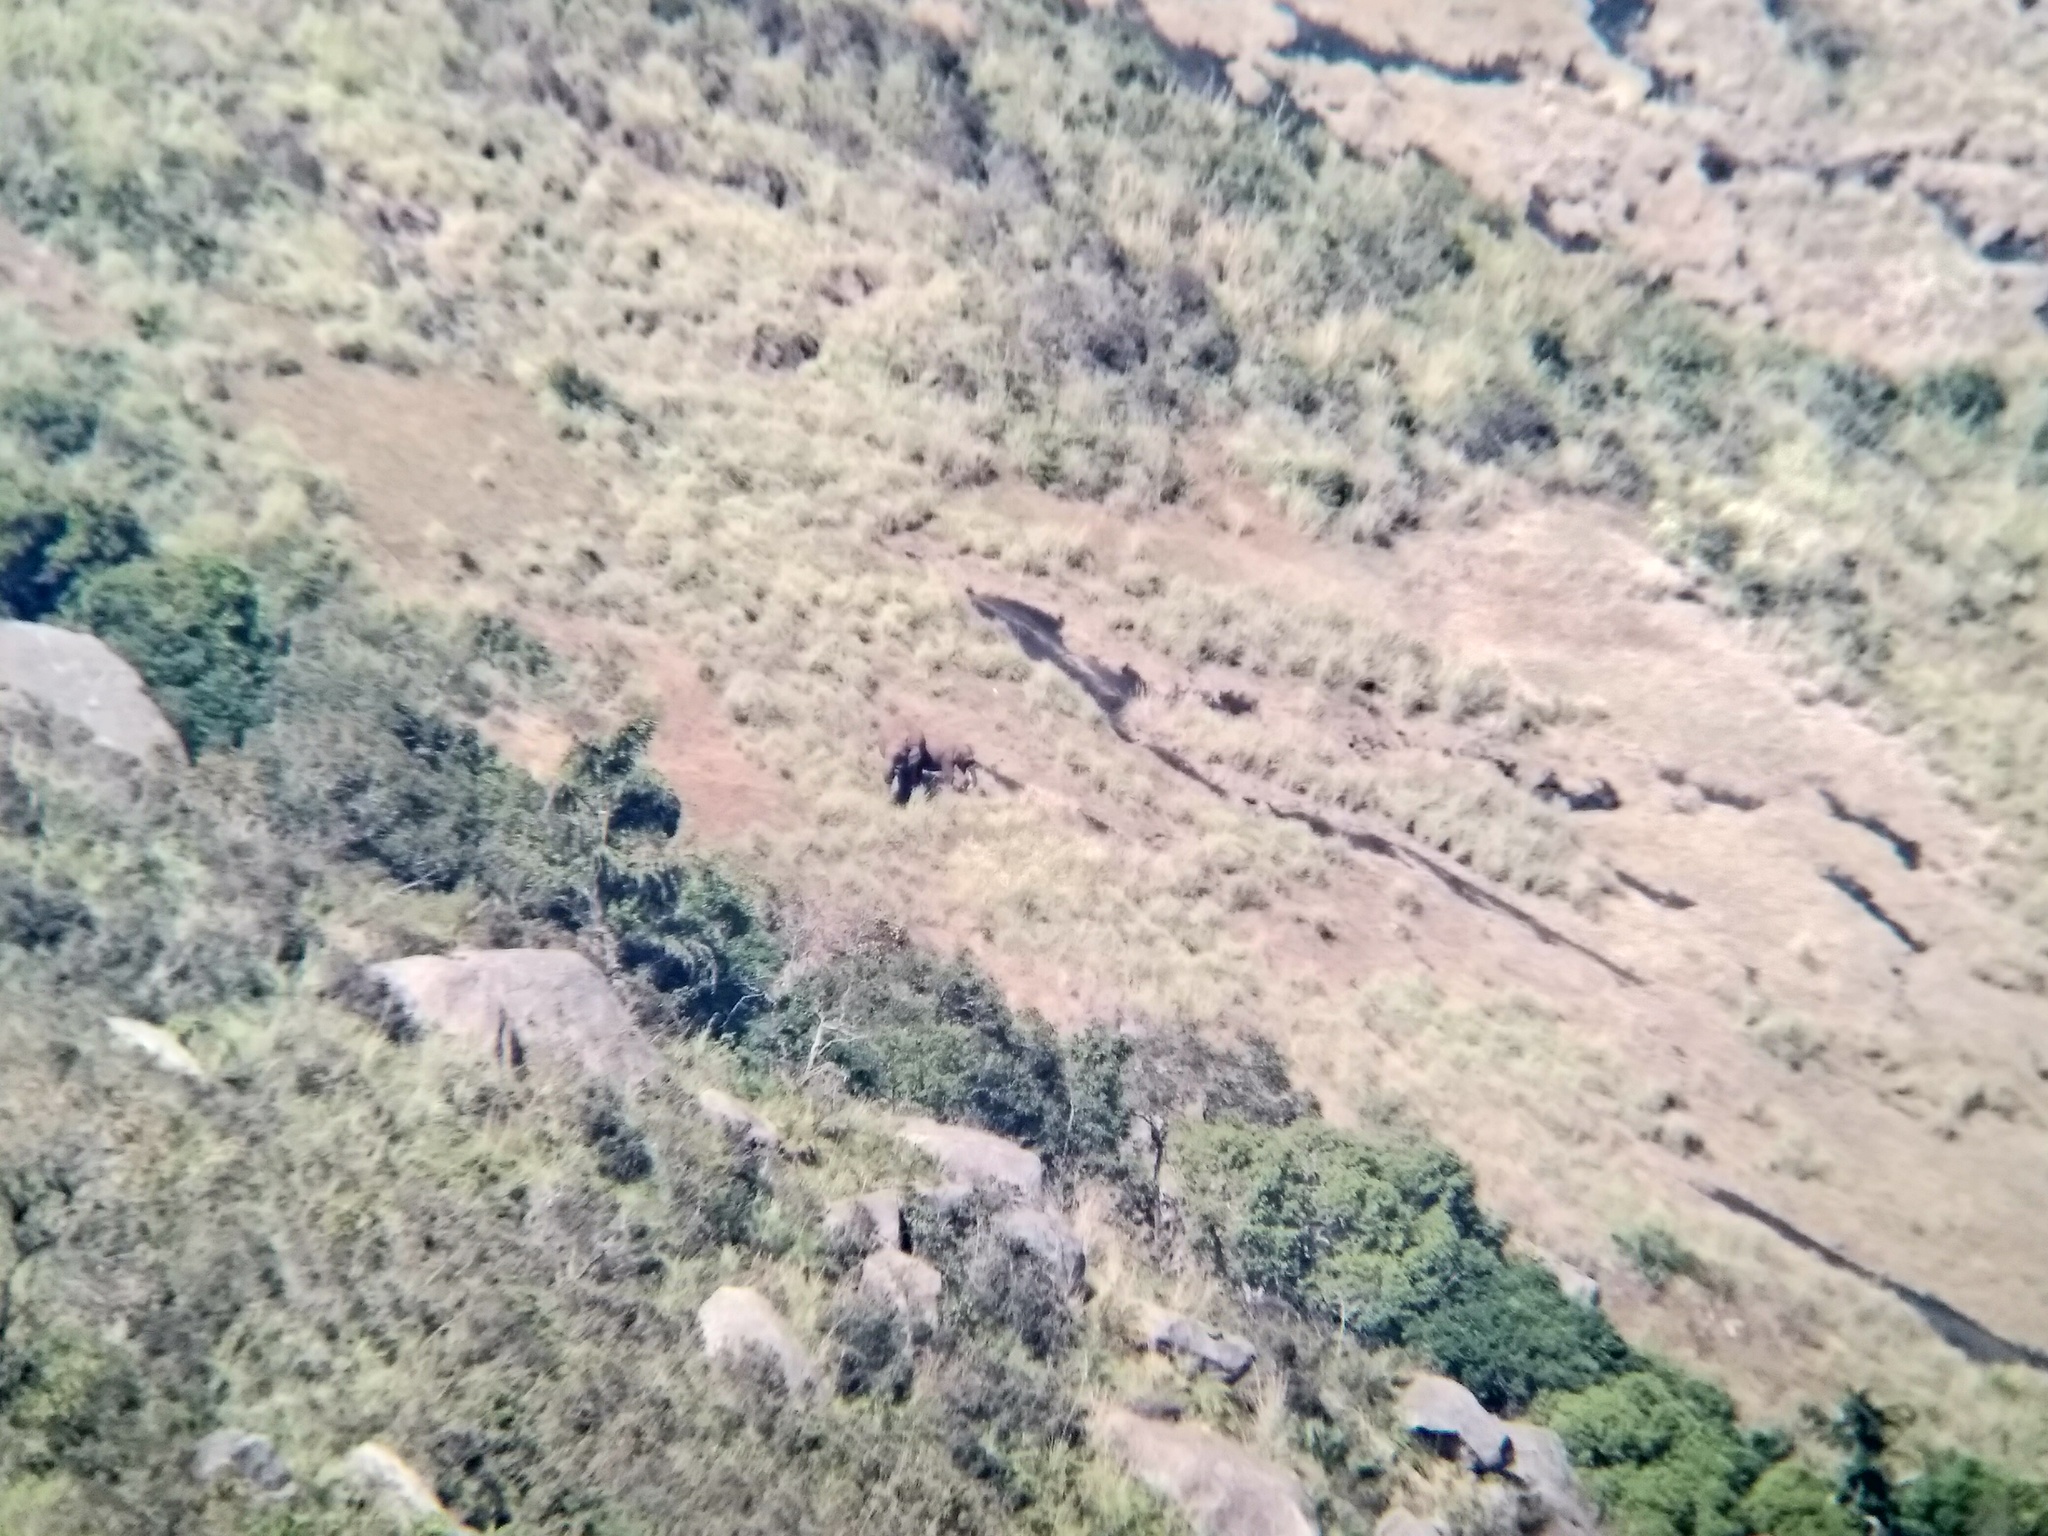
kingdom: Animalia
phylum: Chordata
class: Mammalia
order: Proboscidea
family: Elephantidae
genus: Elephas
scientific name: Elephas maximus
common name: Asian elephant
